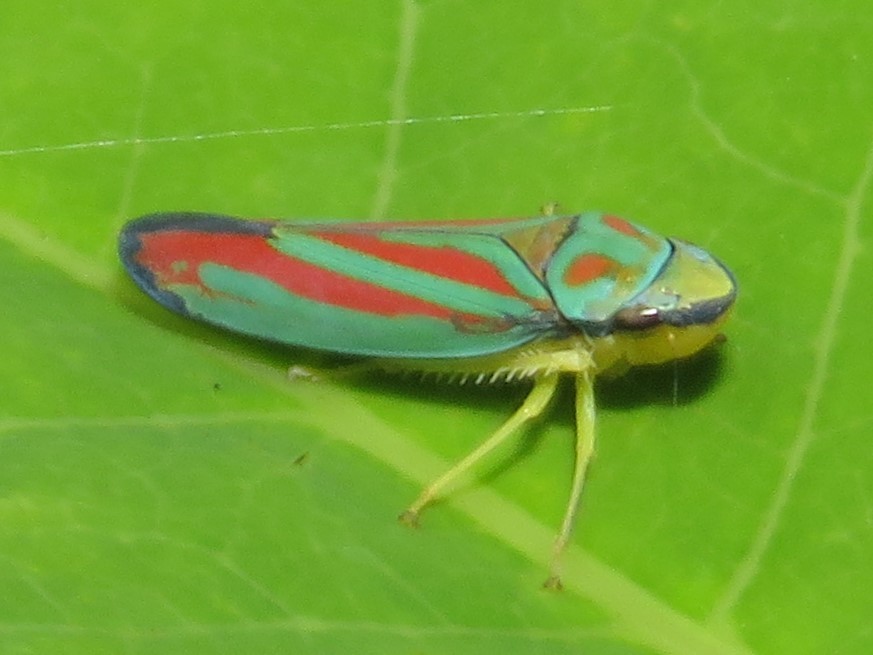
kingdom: Animalia
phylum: Arthropoda
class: Insecta
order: Hemiptera
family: Cicadellidae
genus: Graphocephala
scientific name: Graphocephala coccinea
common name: Candy-striped leafhopper
